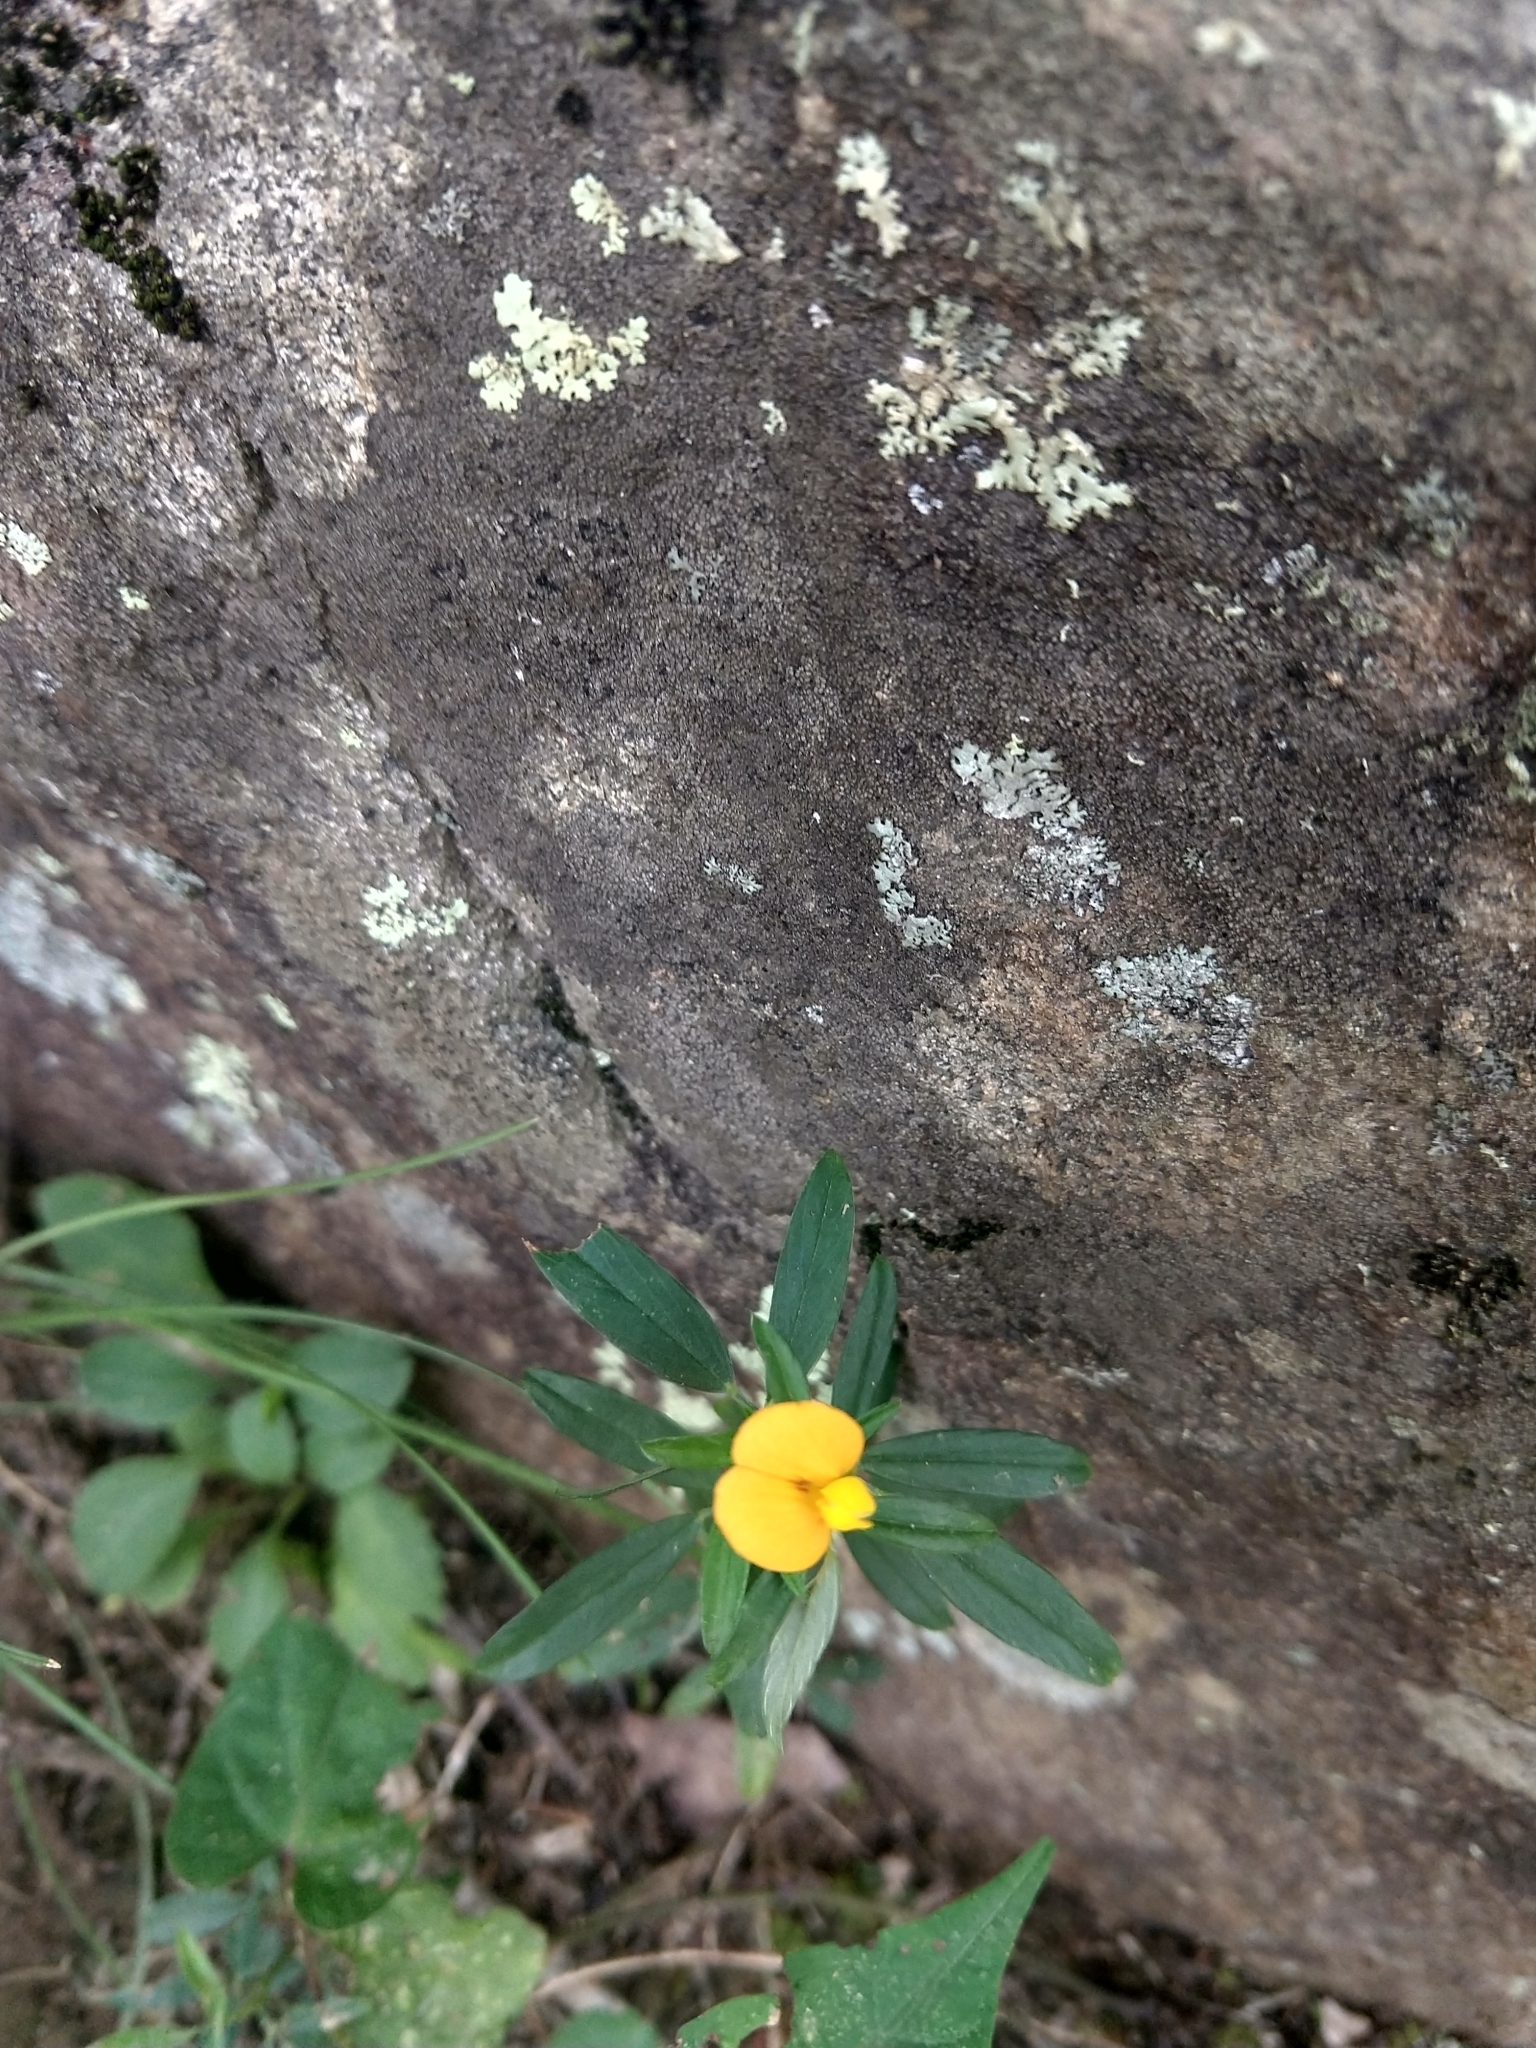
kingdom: Plantae
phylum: Tracheophyta
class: Magnoliopsida
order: Fabales
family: Fabaceae
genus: Stylosanthes
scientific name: Stylosanthes biflora
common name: Two-flower pencil-flower
